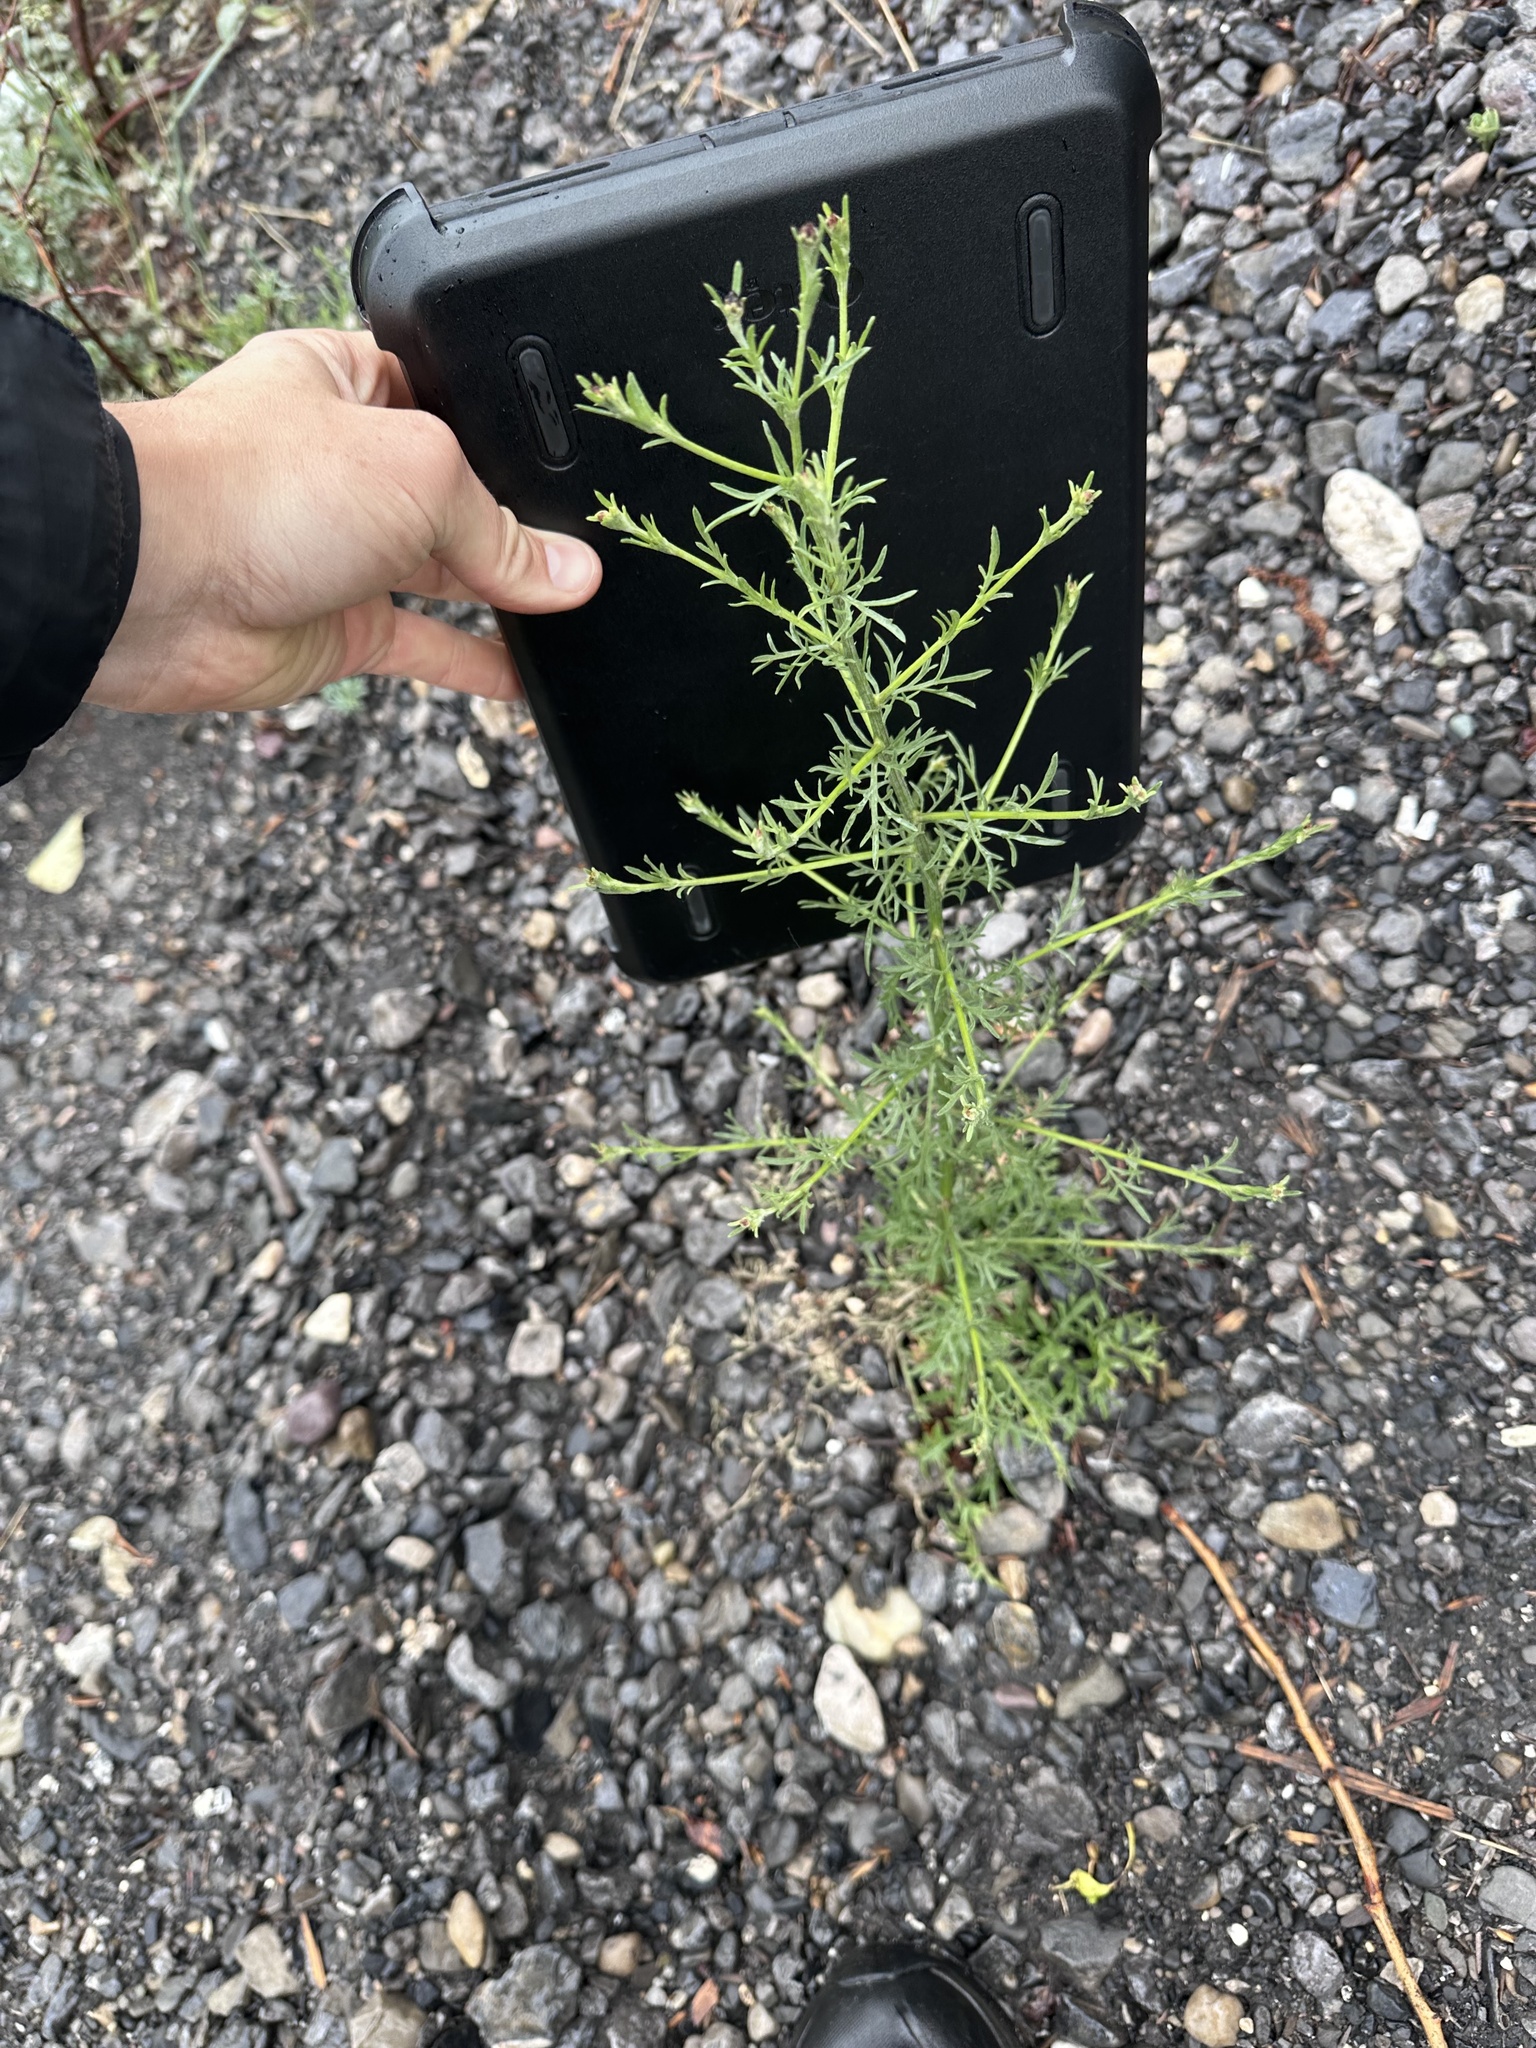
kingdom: Plantae
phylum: Tracheophyta
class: Magnoliopsida
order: Asterales
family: Asteraceae
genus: Centaurea
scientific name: Centaurea stoebe
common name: Spotted knapweed
